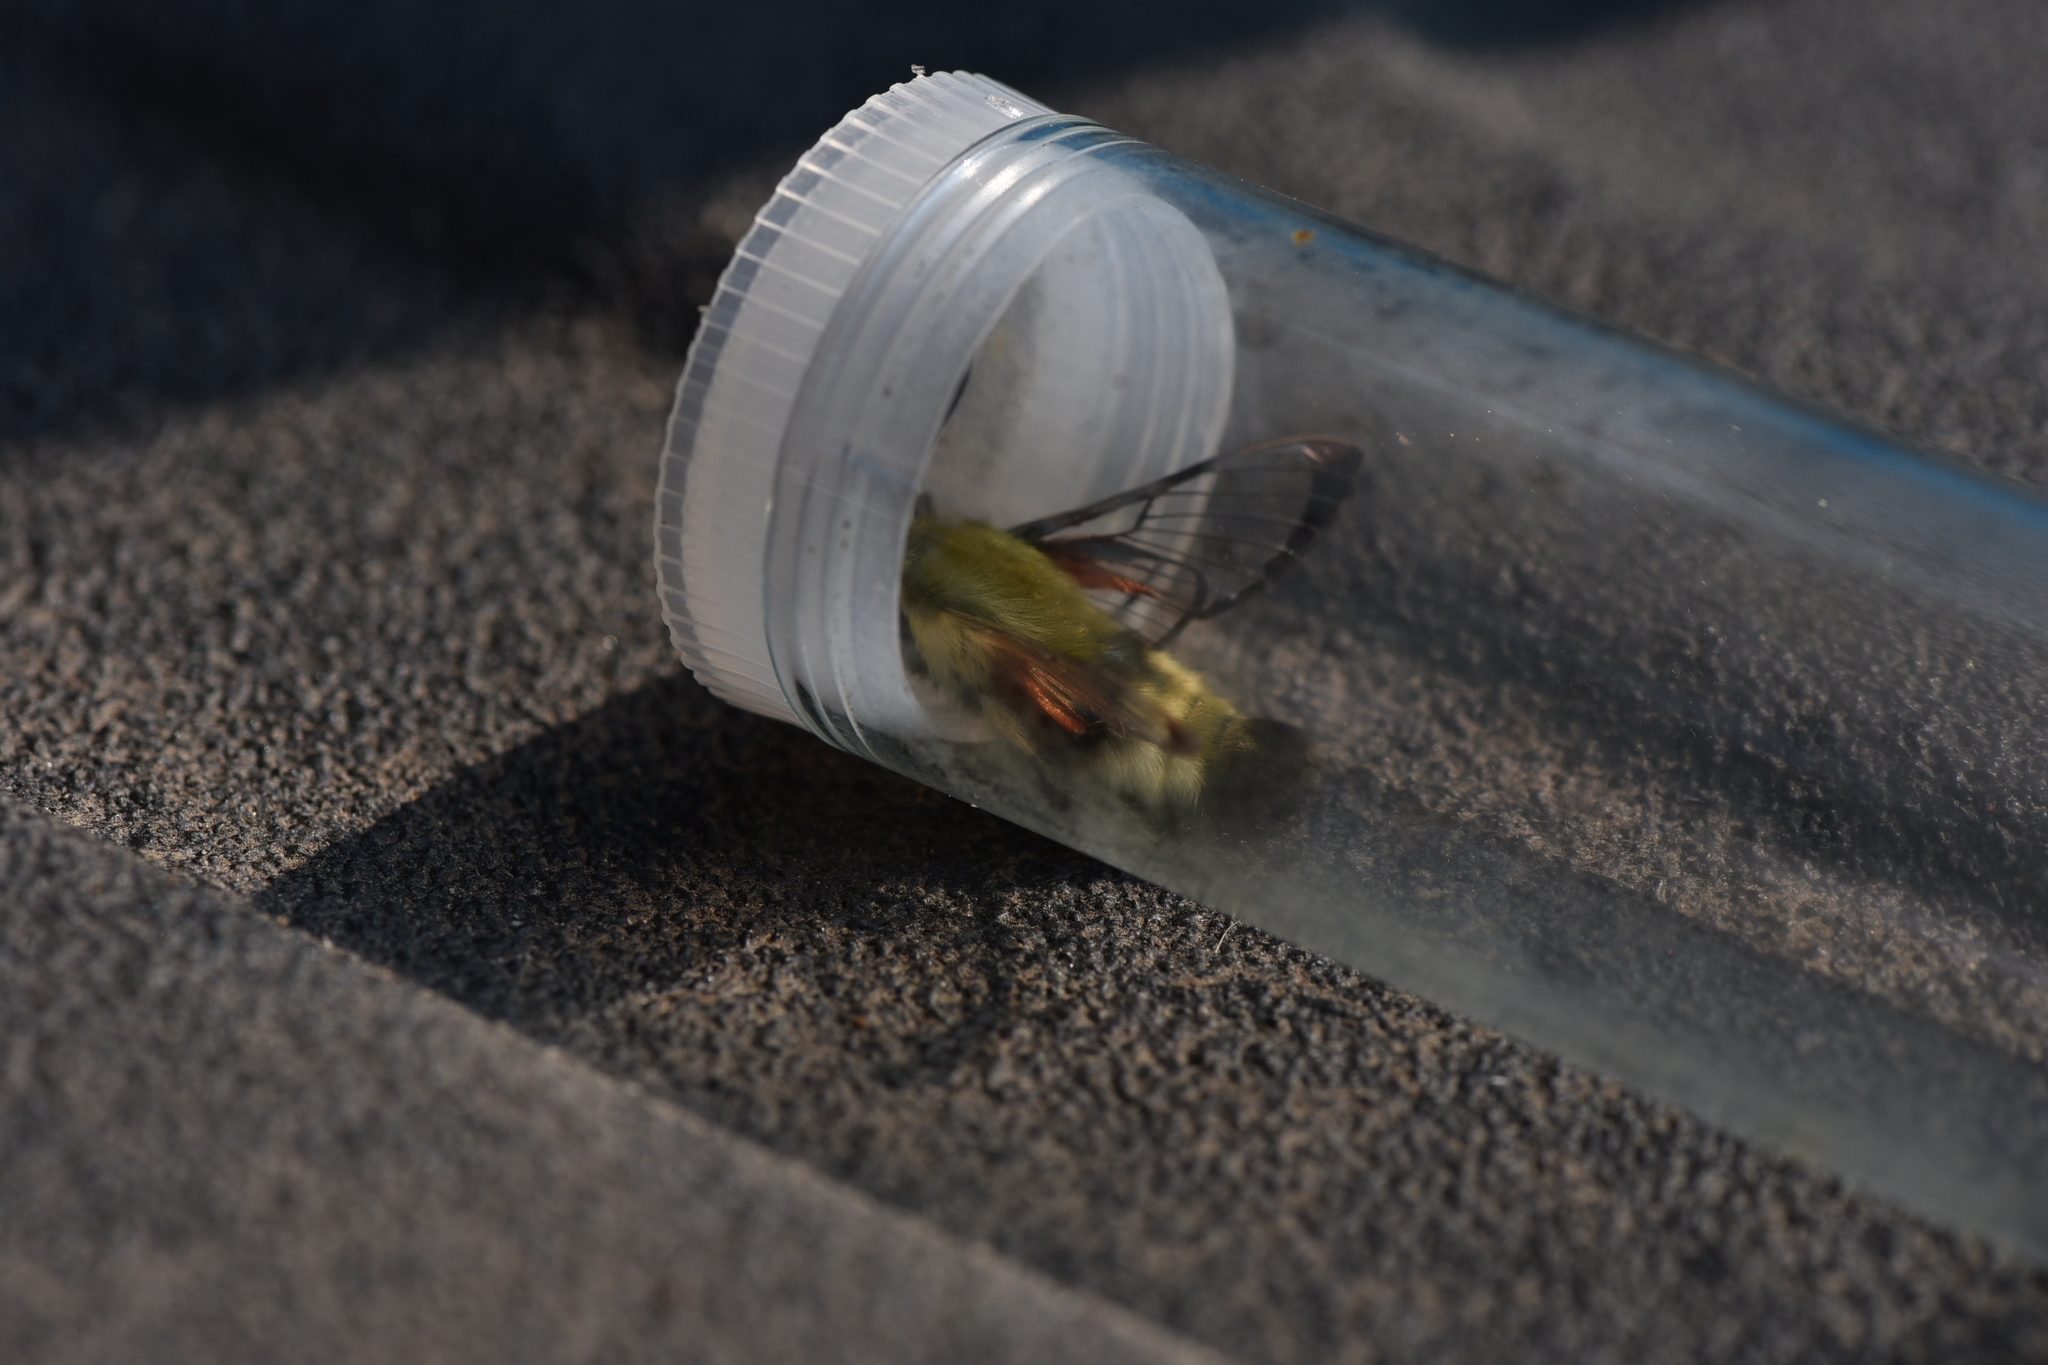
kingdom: Animalia
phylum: Arthropoda
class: Insecta
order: Lepidoptera
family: Sphingidae
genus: Hemaris
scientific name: Hemaris thetis
